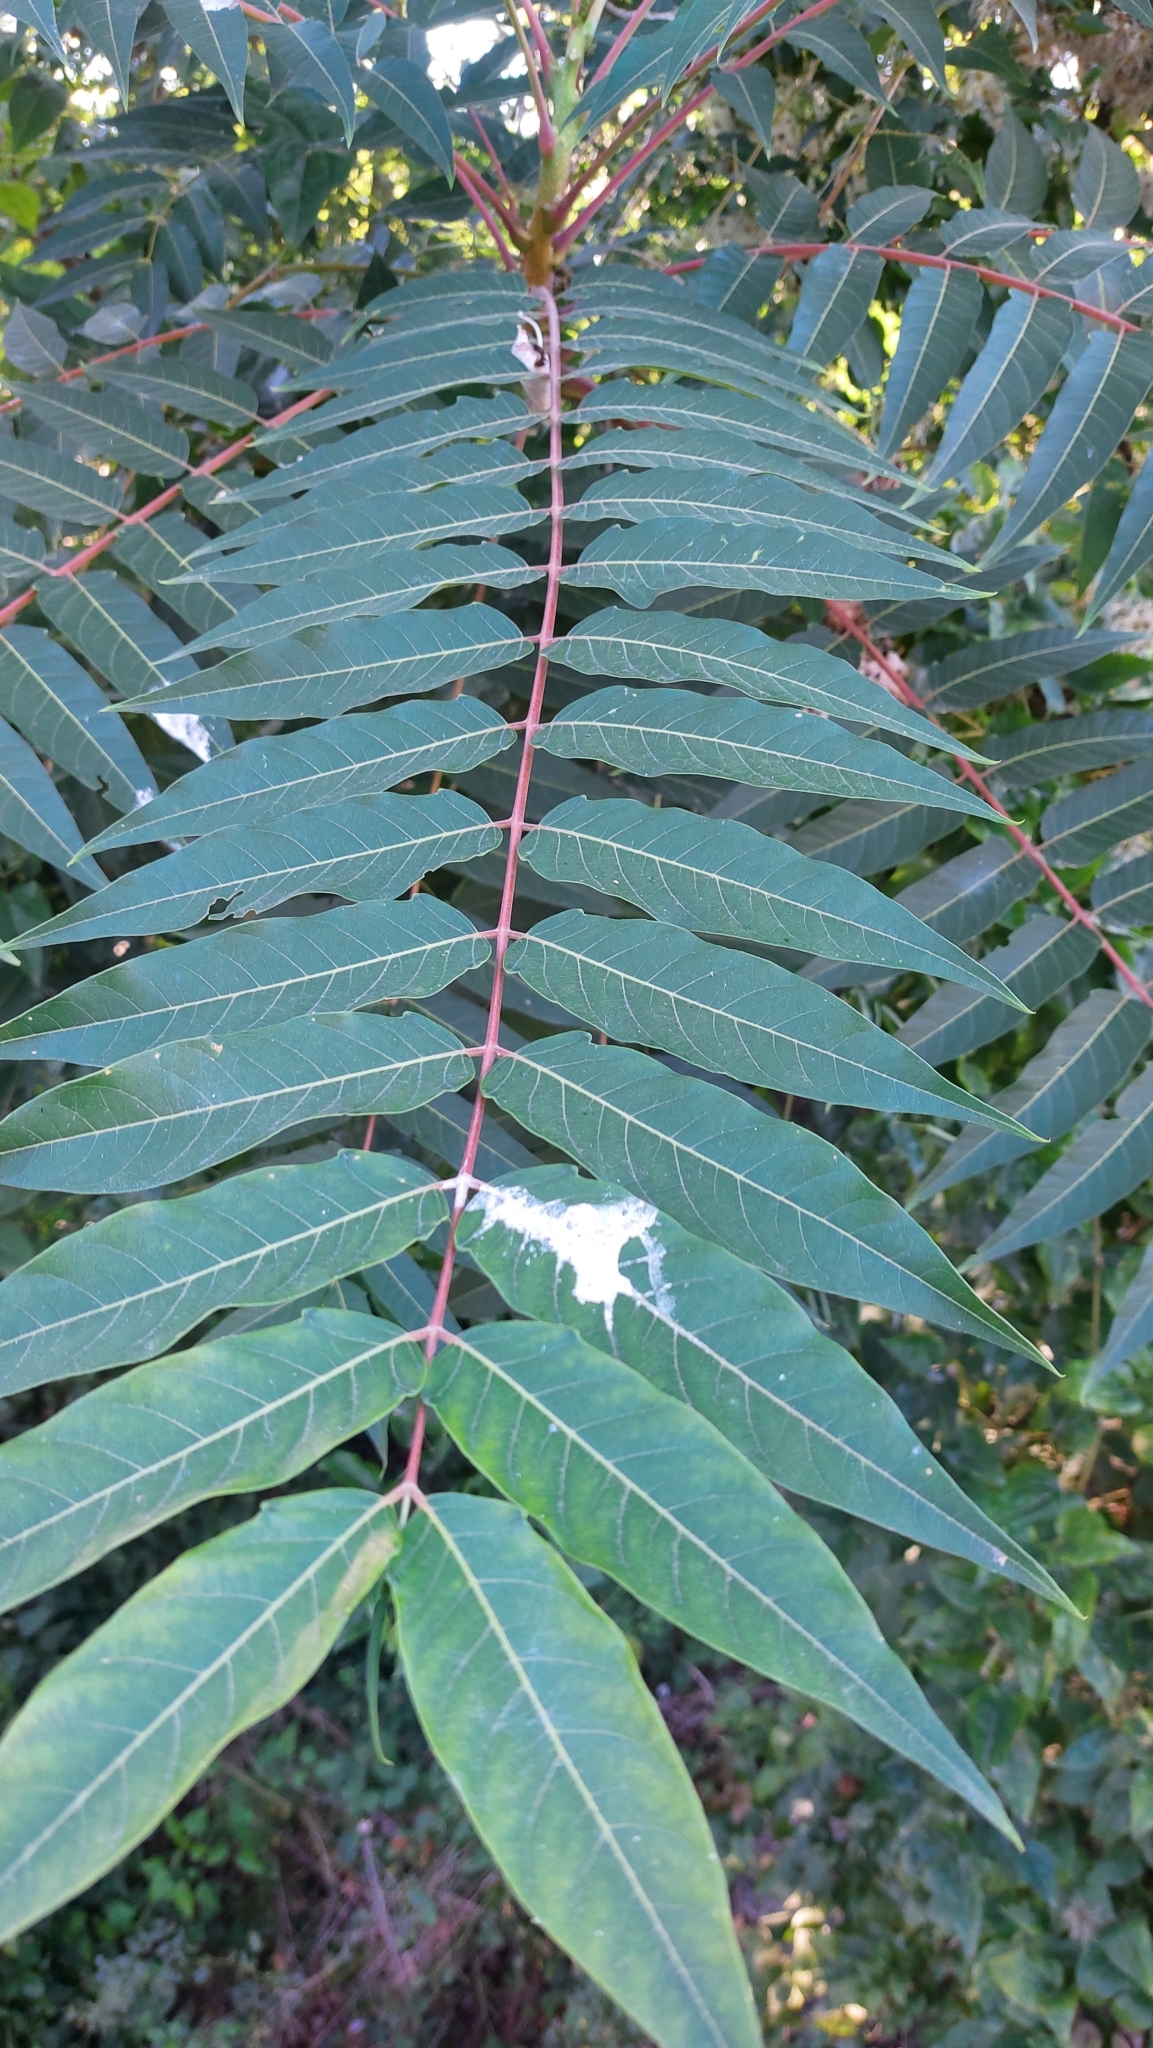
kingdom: Plantae
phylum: Tracheophyta
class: Magnoliopsida
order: Sapindales
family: Simaroubaceae
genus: Ailanthus
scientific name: Ailanthus altissima
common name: Tree-of-heaven
